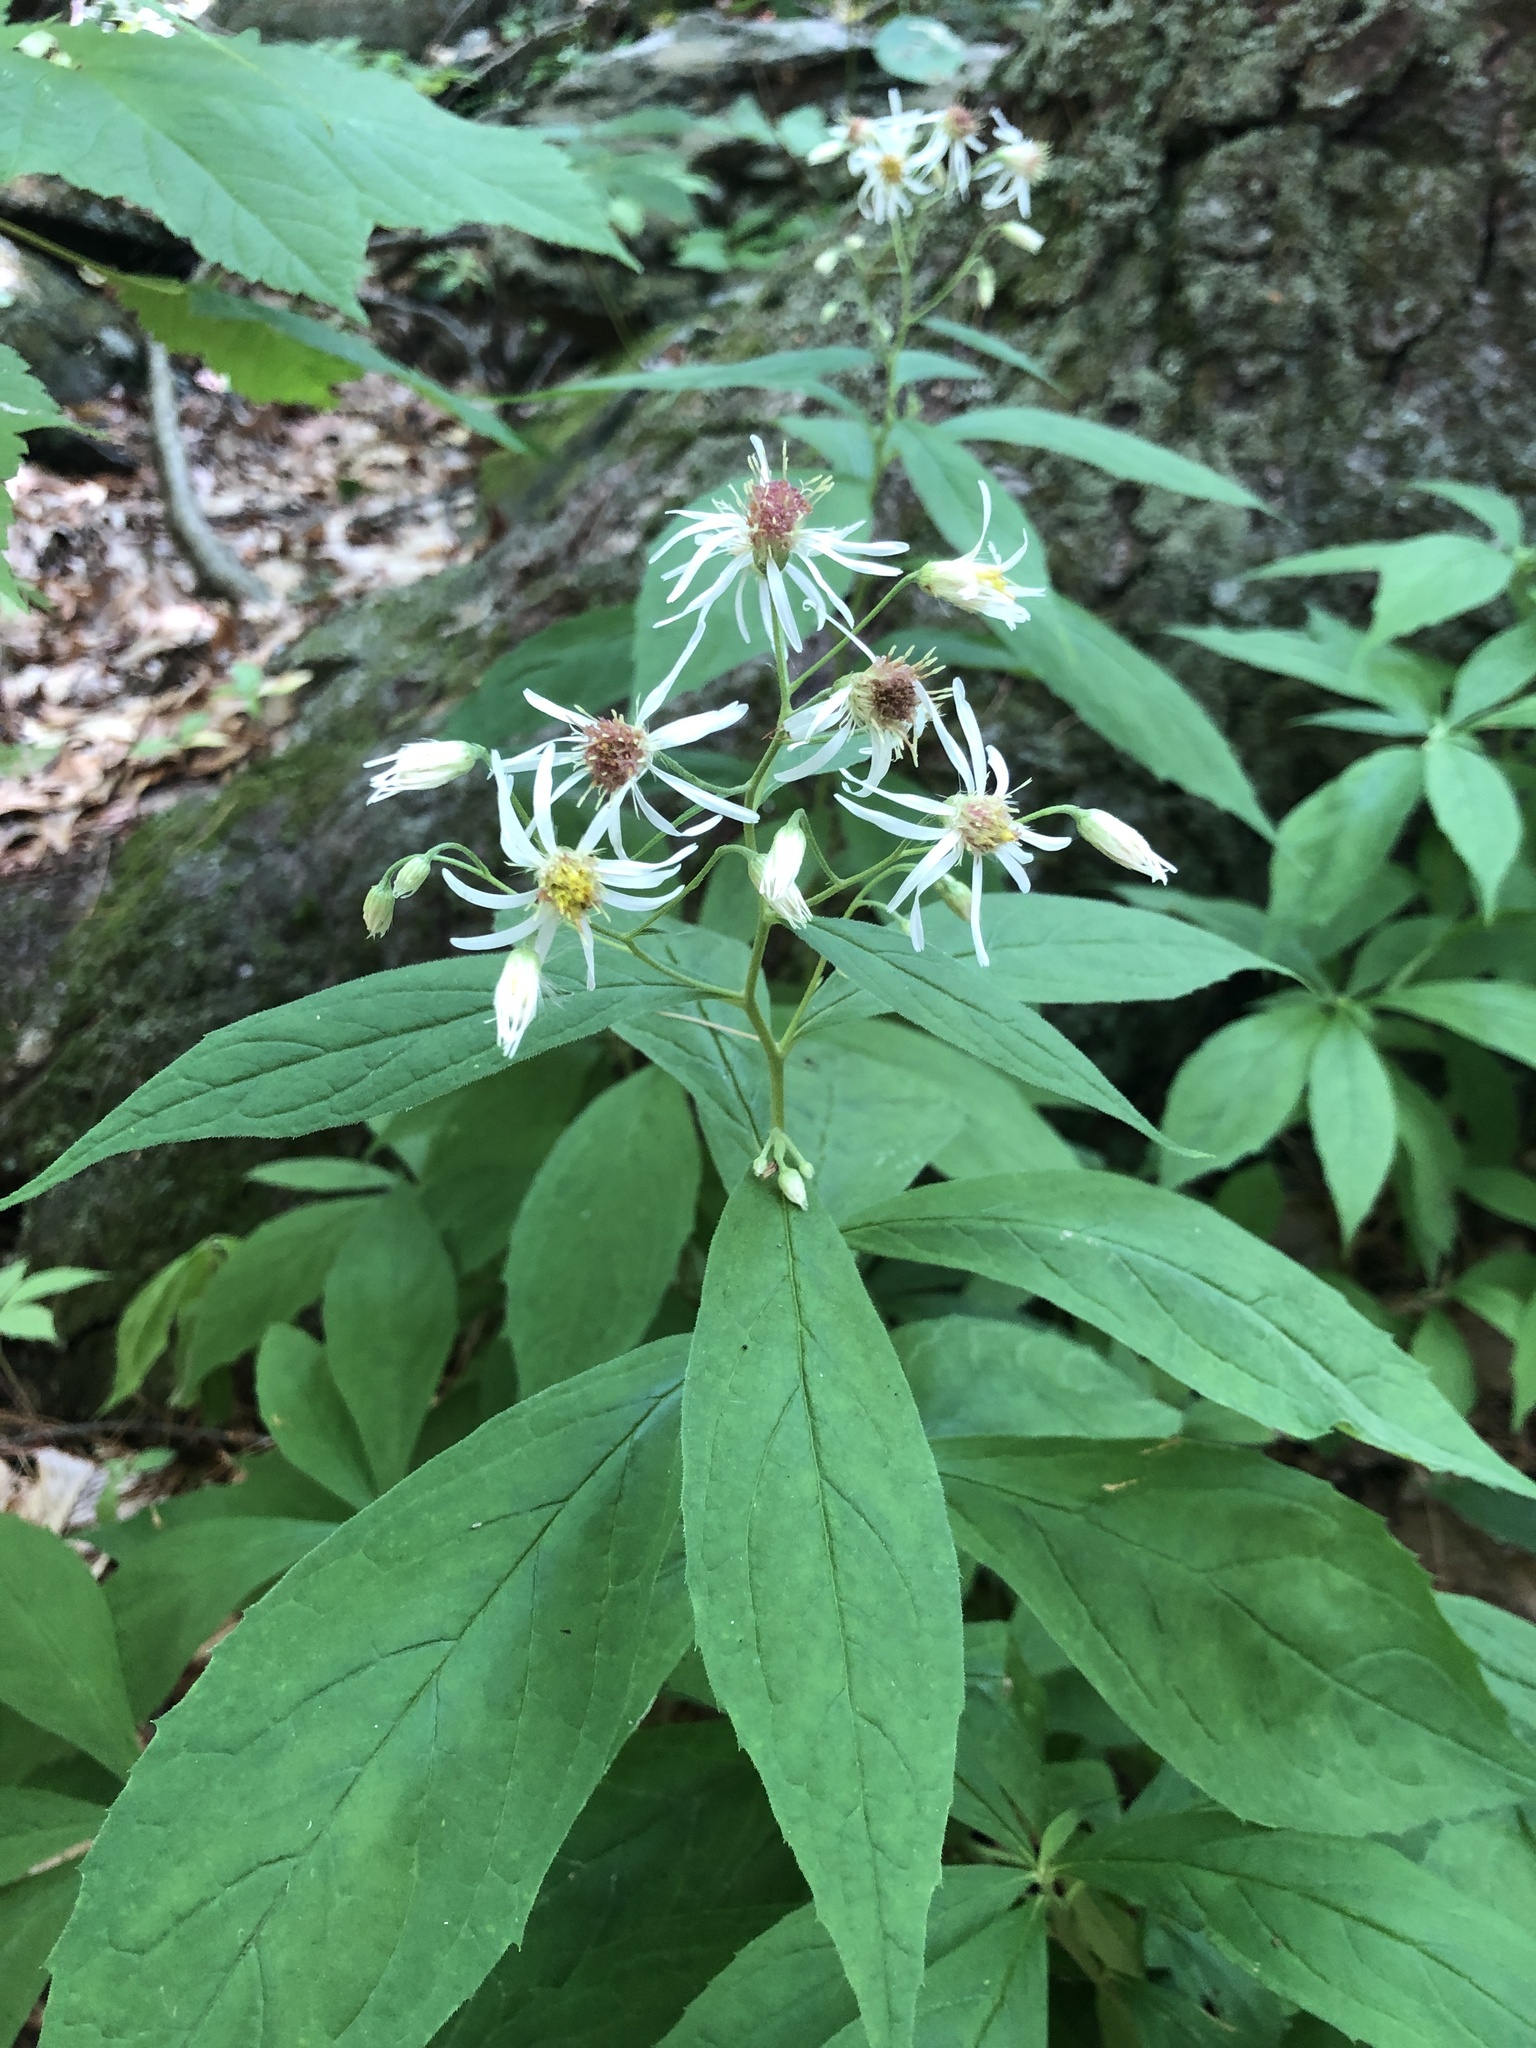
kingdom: Plantae
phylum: Tracheophyta
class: Magnoliopsida
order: Asterales
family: Asteraceae
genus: Oclemena
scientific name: Oclemena acuminata
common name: Mountain aster
